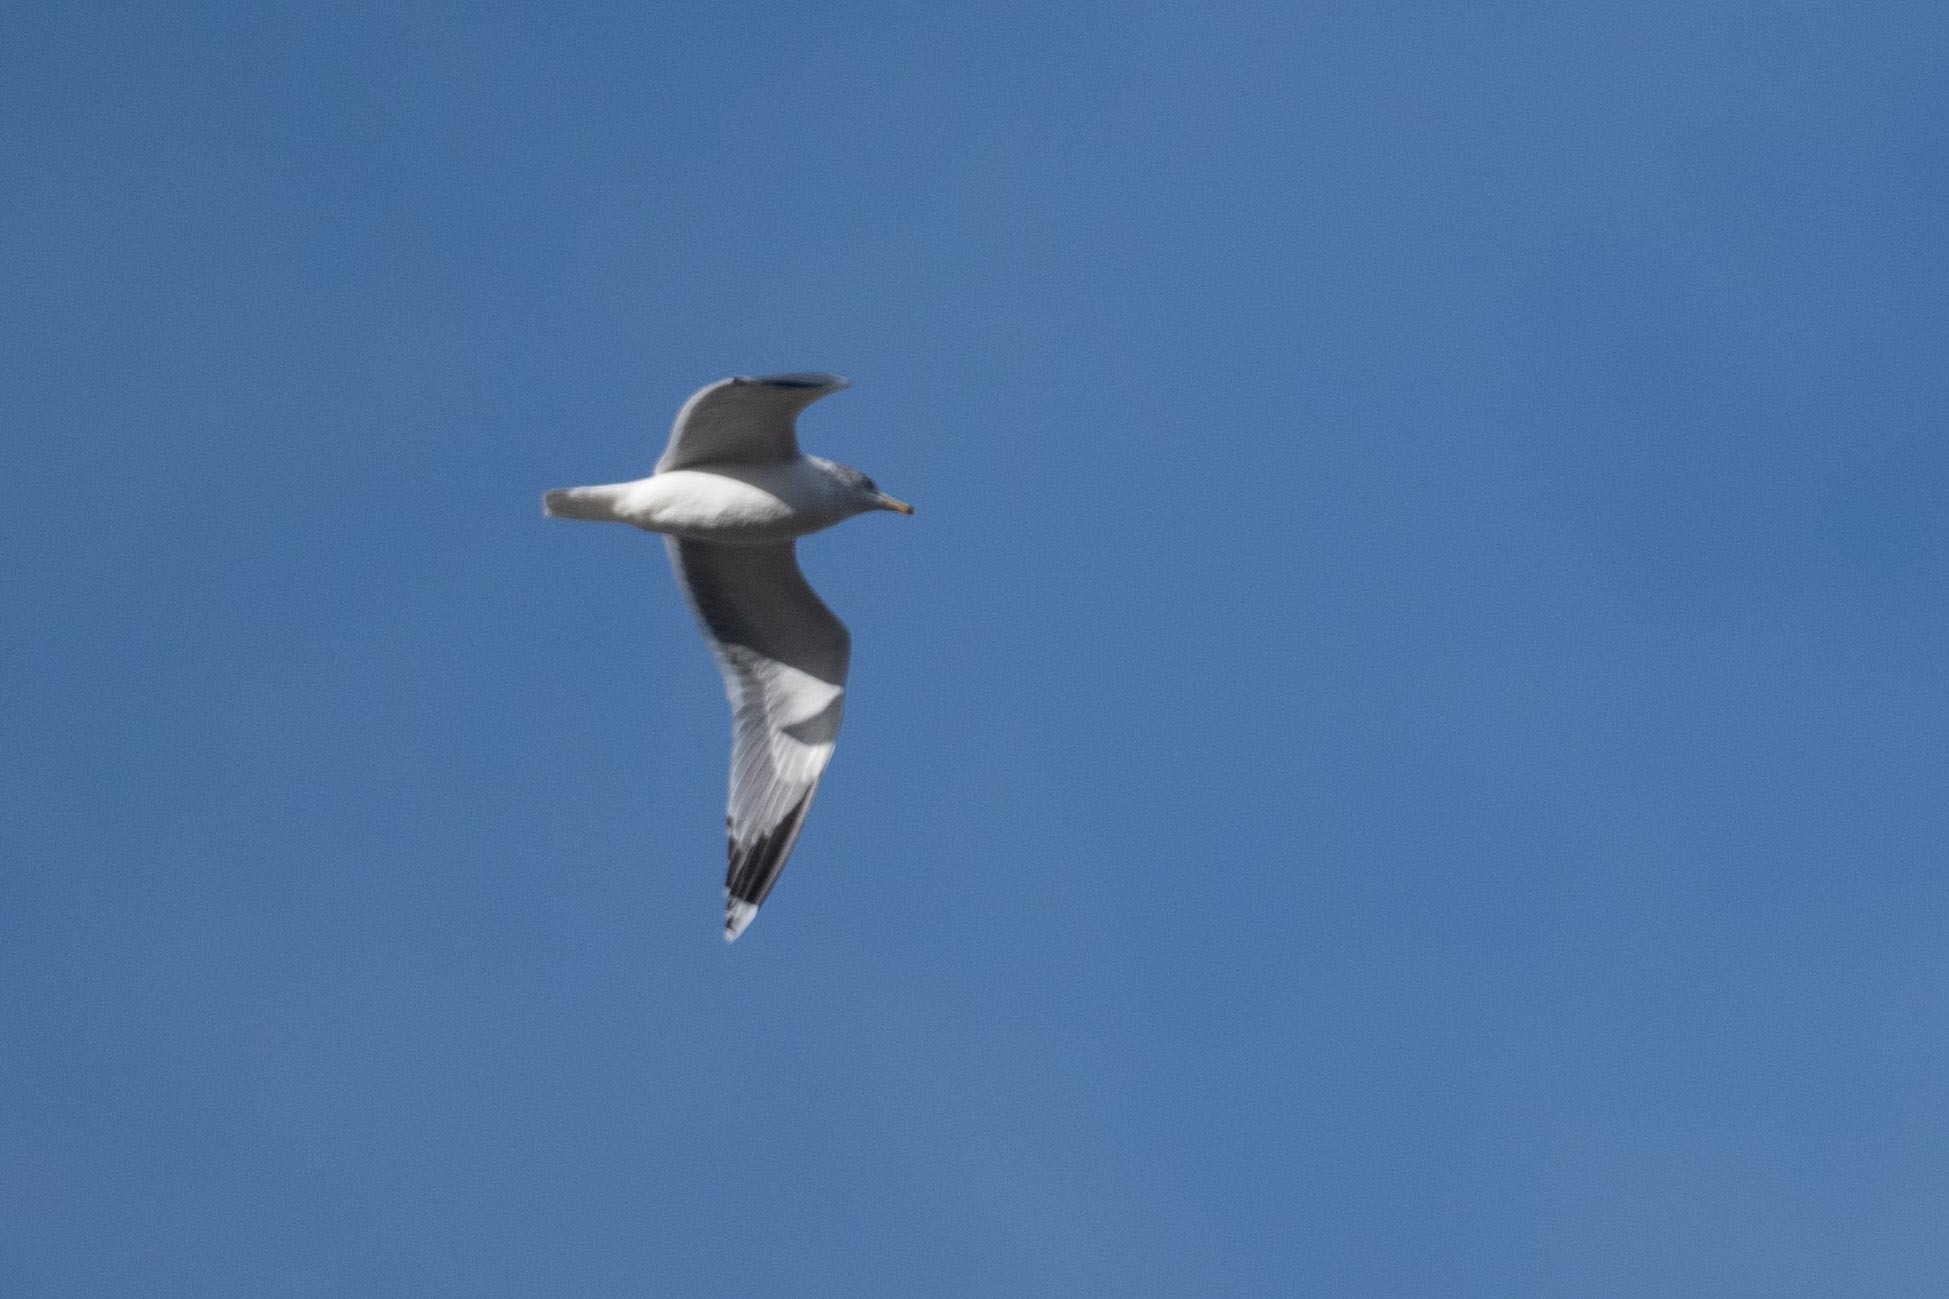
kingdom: Animalia
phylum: Chordata
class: Aves
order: Charadriiformes
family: Laridae
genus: Larus
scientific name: Larus californicus
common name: California gull
